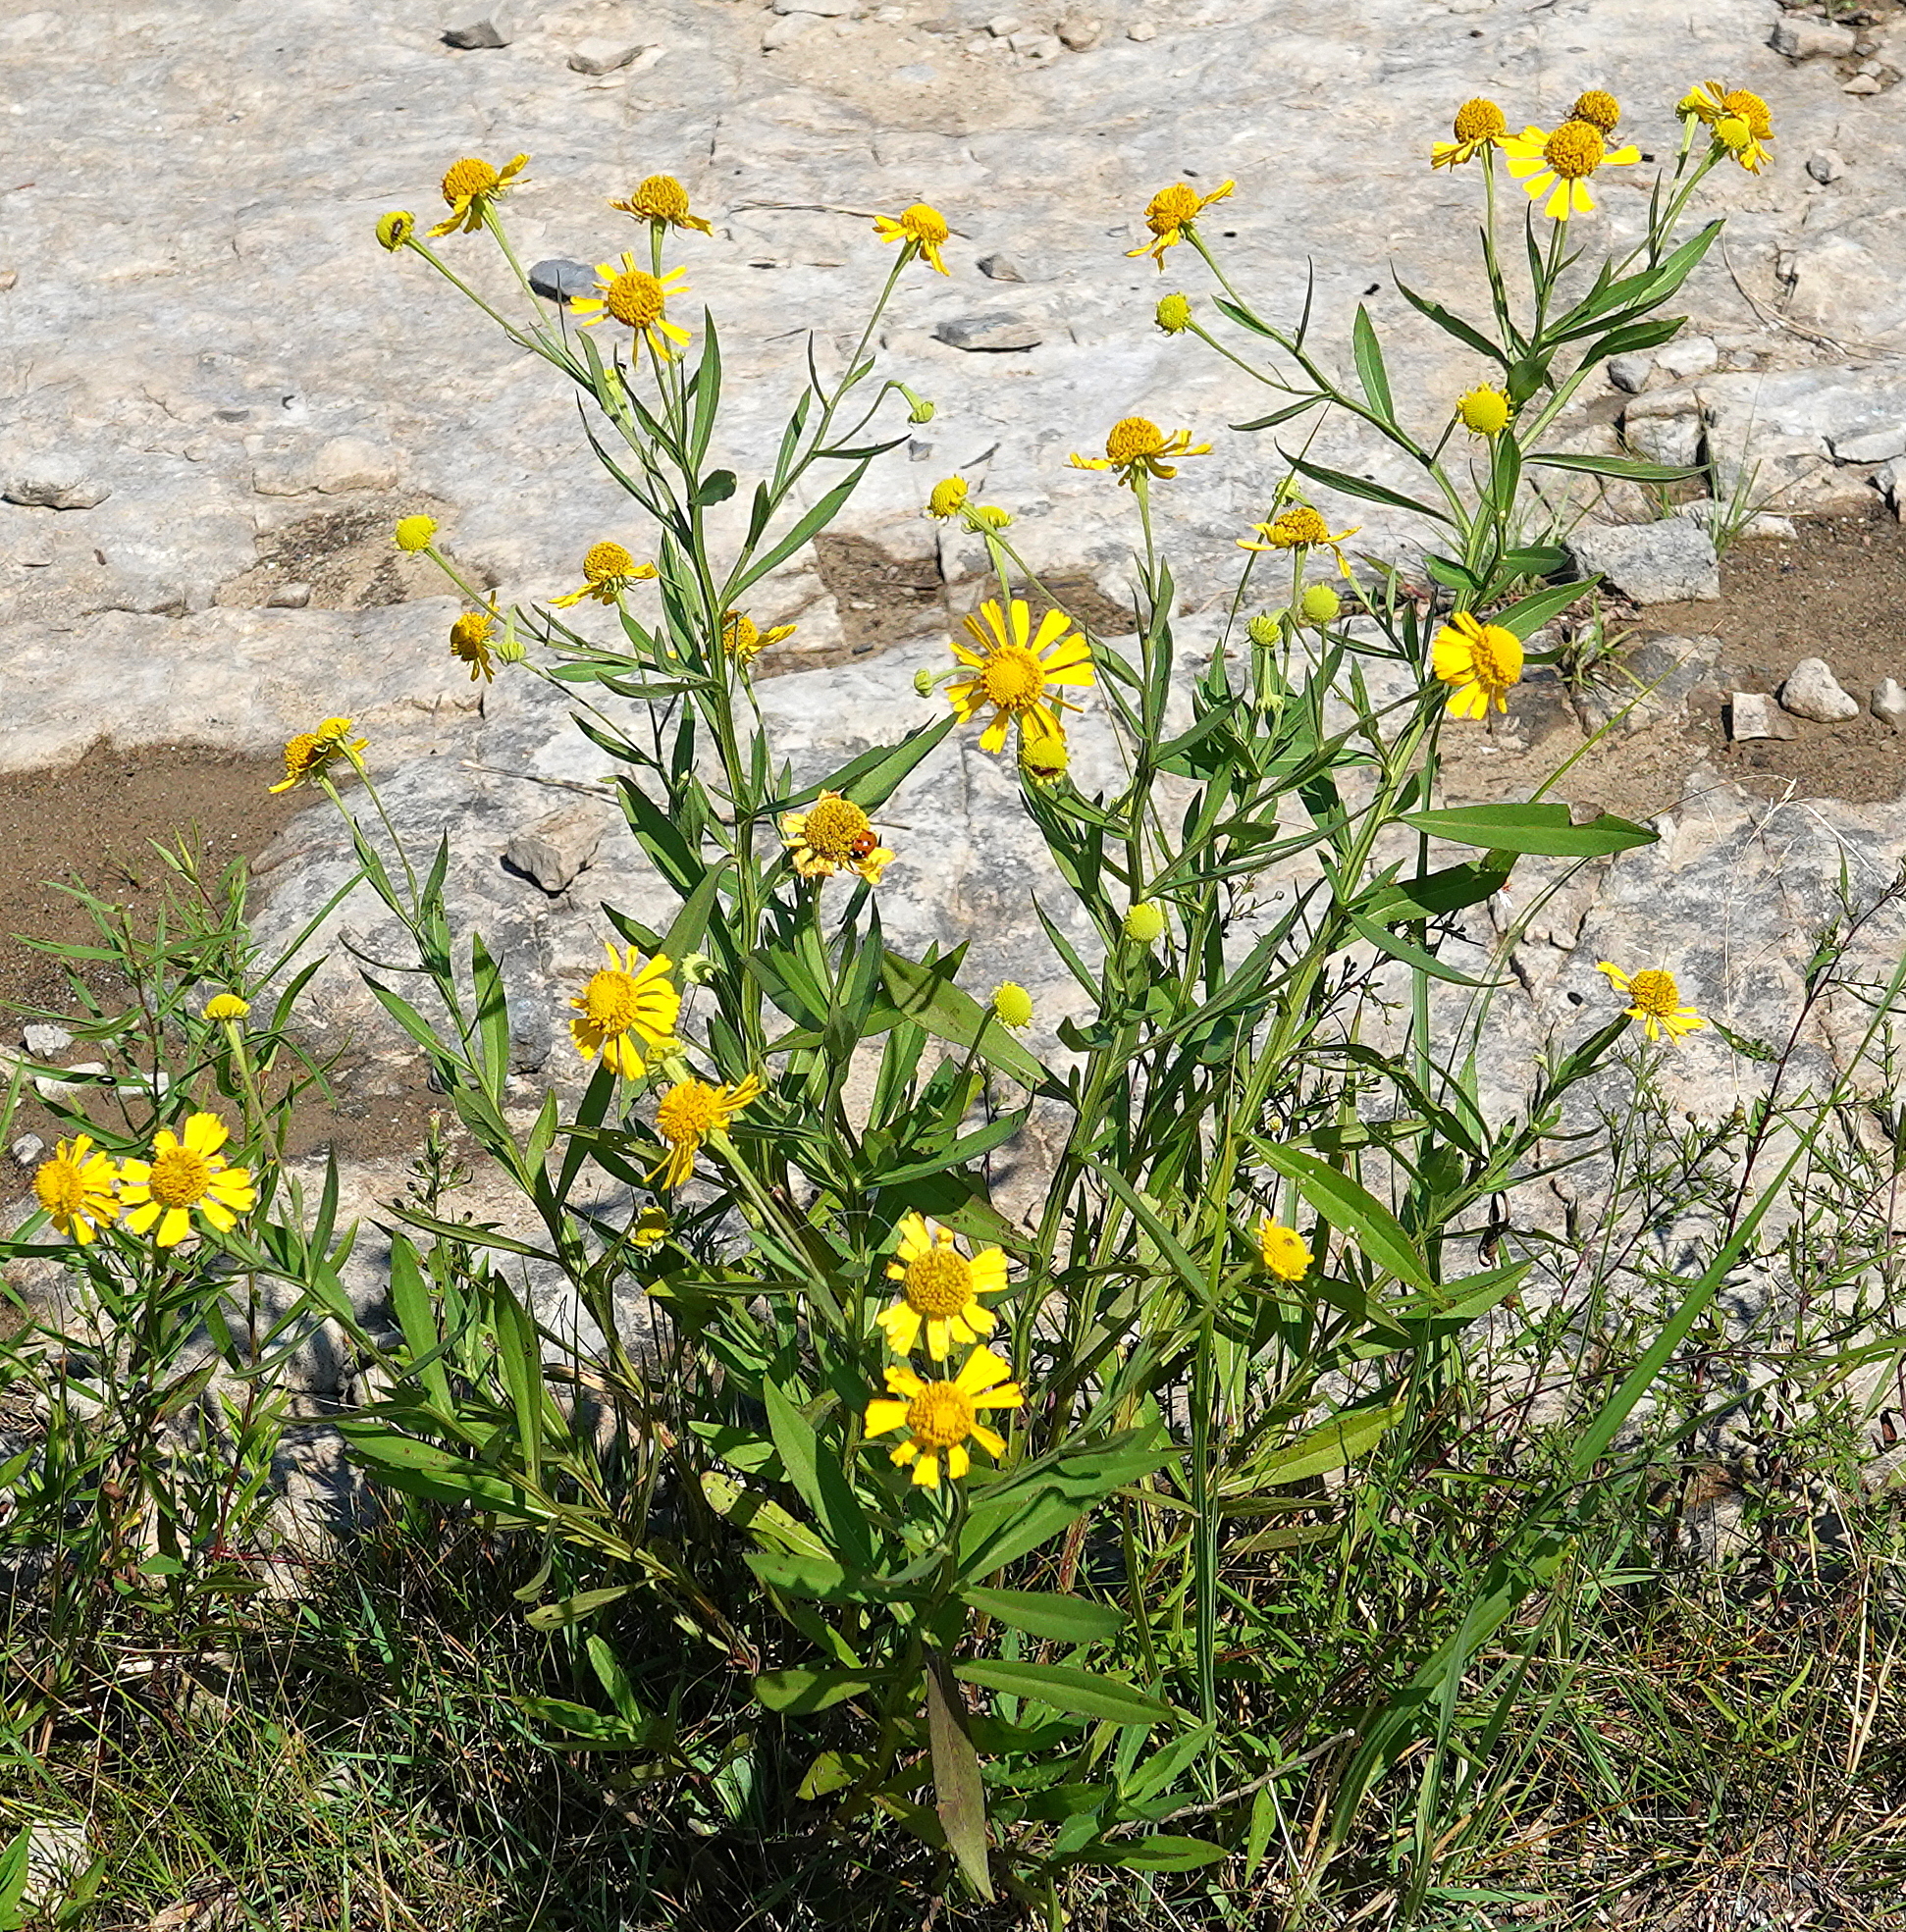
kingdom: Plantae
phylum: Tracheophyta
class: Magnoliopsida
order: Asterales
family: Asteraceae
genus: Helenium
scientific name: Helenium autumnale
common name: Sneezeweed
